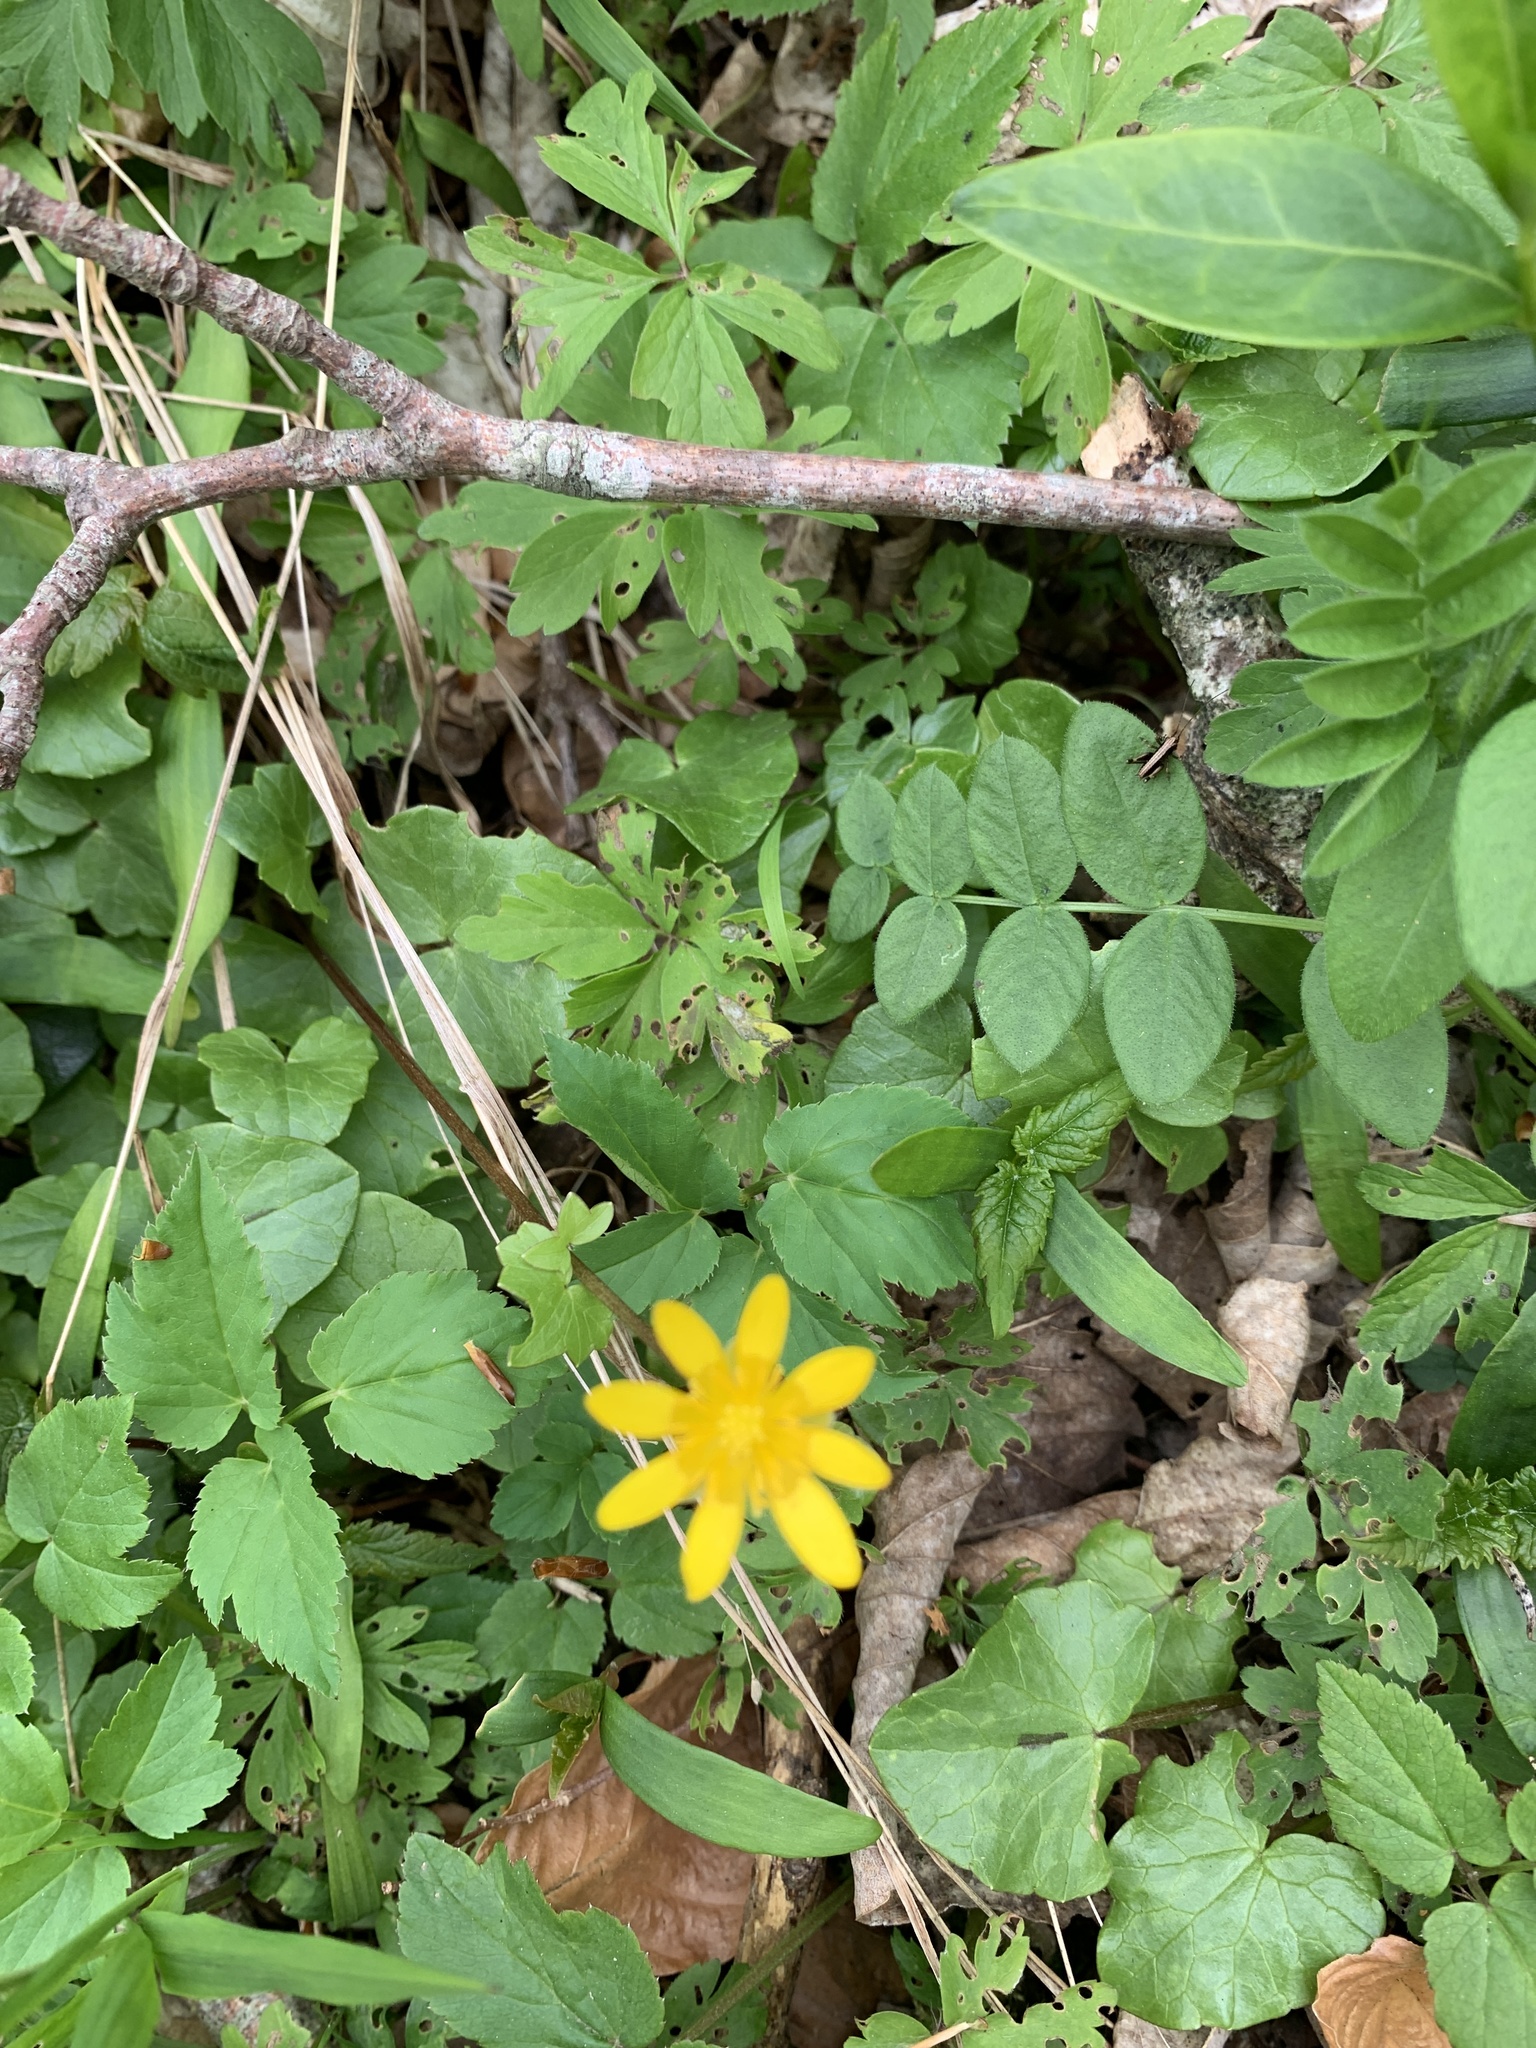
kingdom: Plantae
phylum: Tracheophyta
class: Magnoliopsida
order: Ranunculales
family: Ranunculaceae
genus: Ficaria
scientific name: Ficaria verna
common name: Lesser celandine
